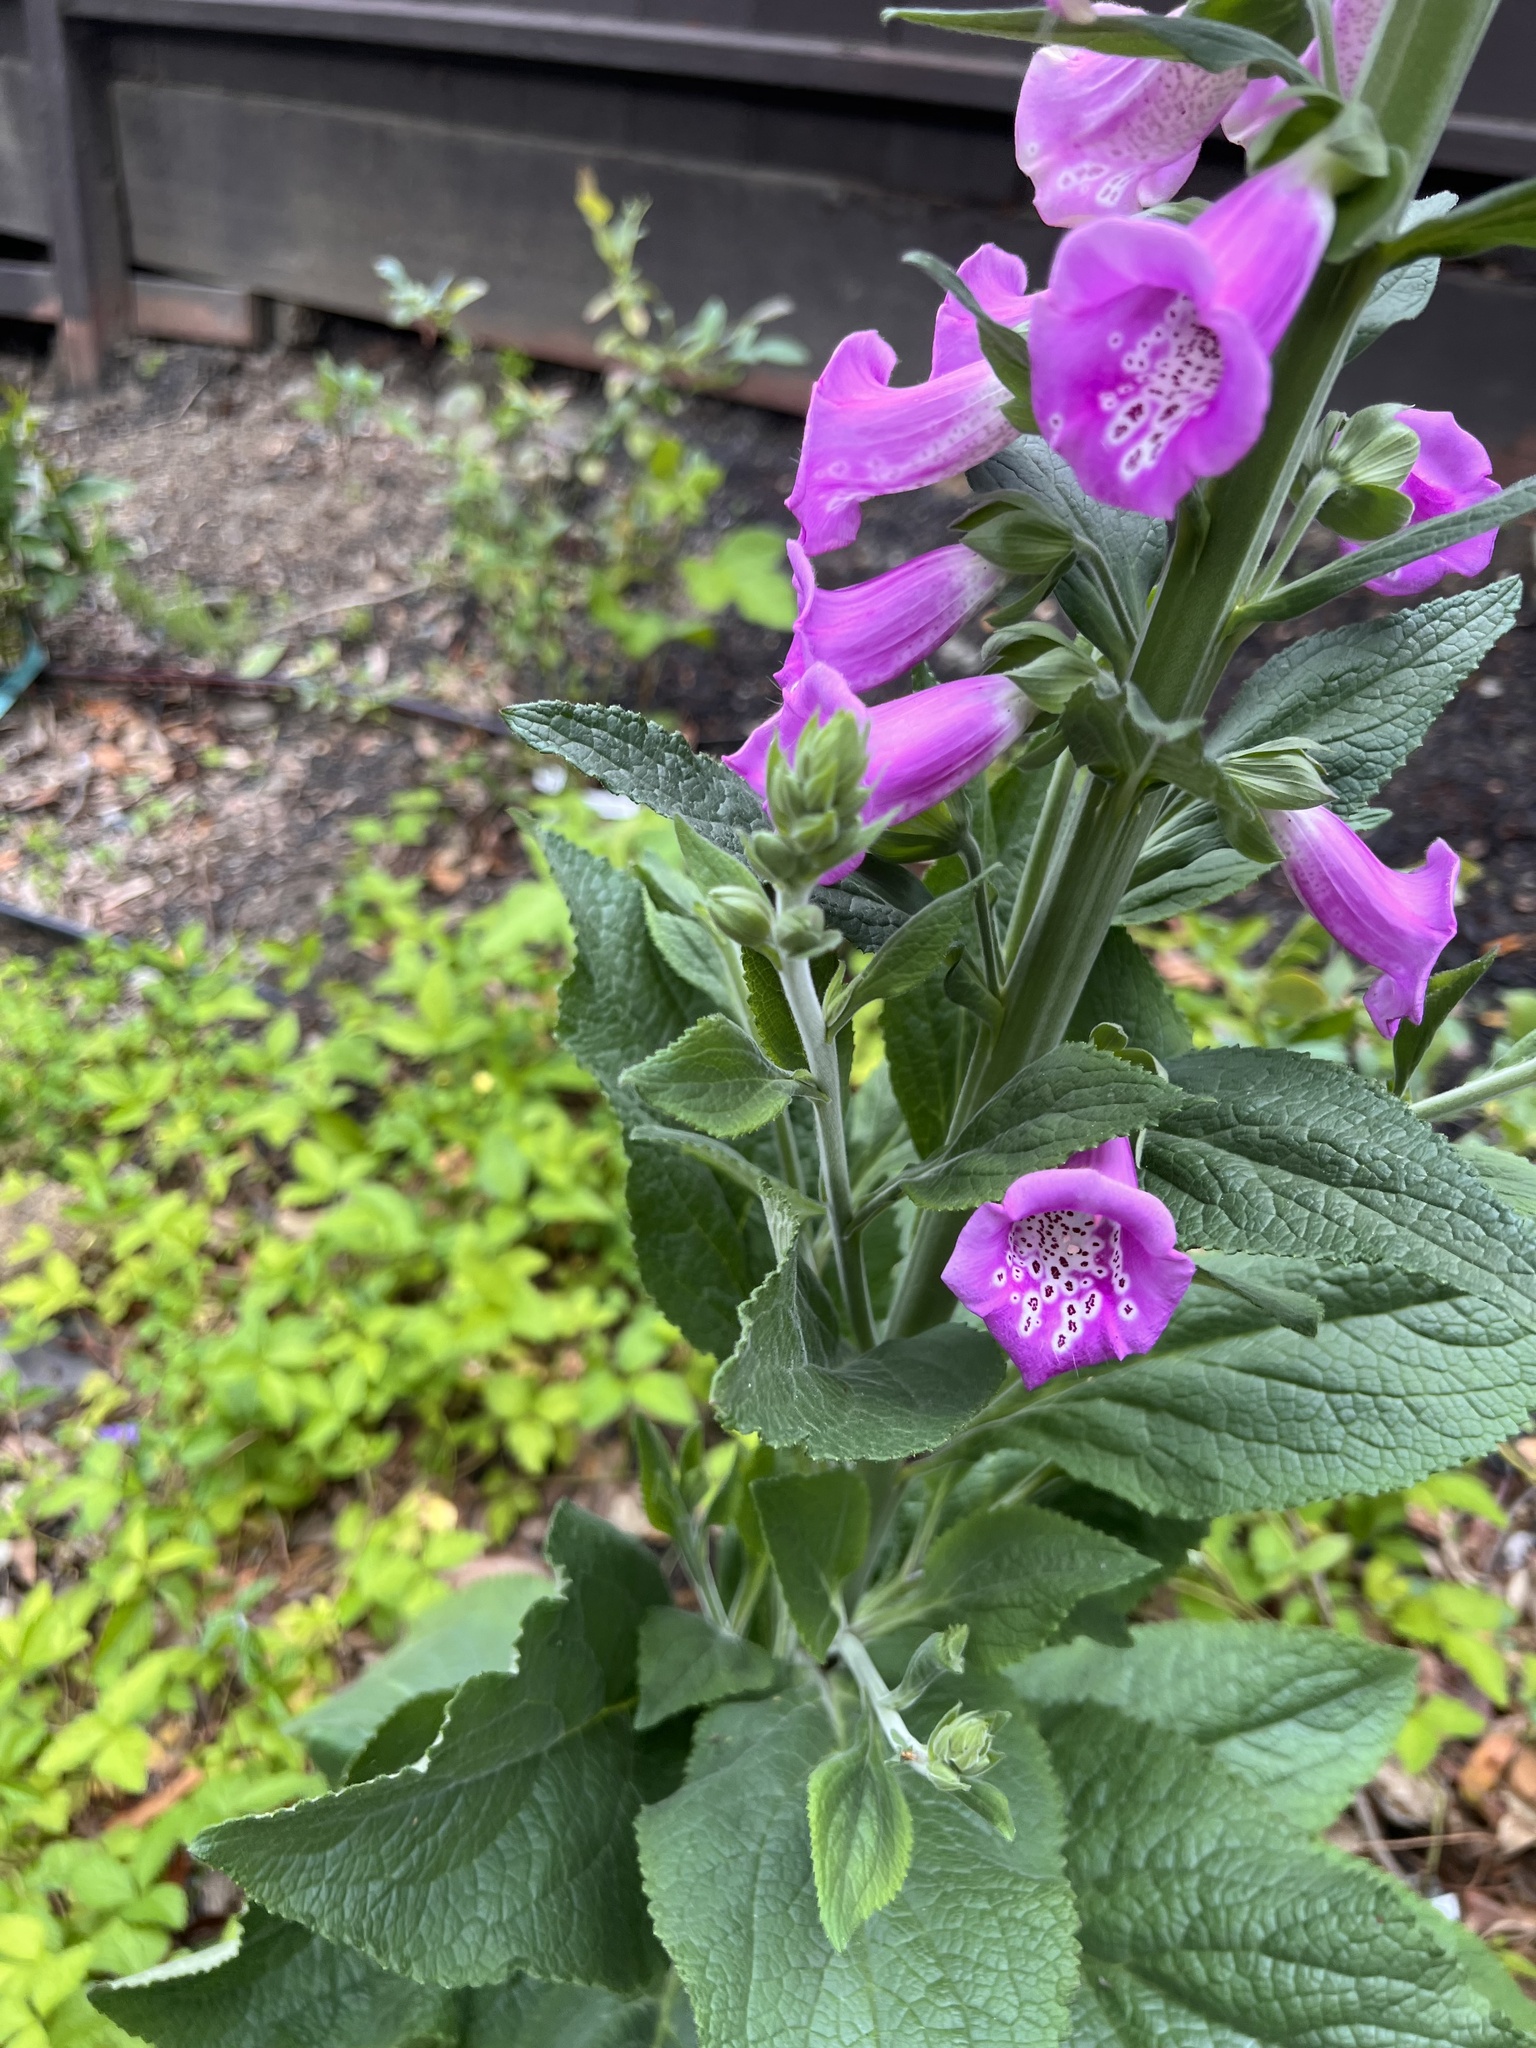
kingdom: Plantae
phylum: Tracheophyta
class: Magnoliopsida
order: Lamiales
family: Plantaginaceae
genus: Digitalis
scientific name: Digitalis purpurea
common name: Foxglove
